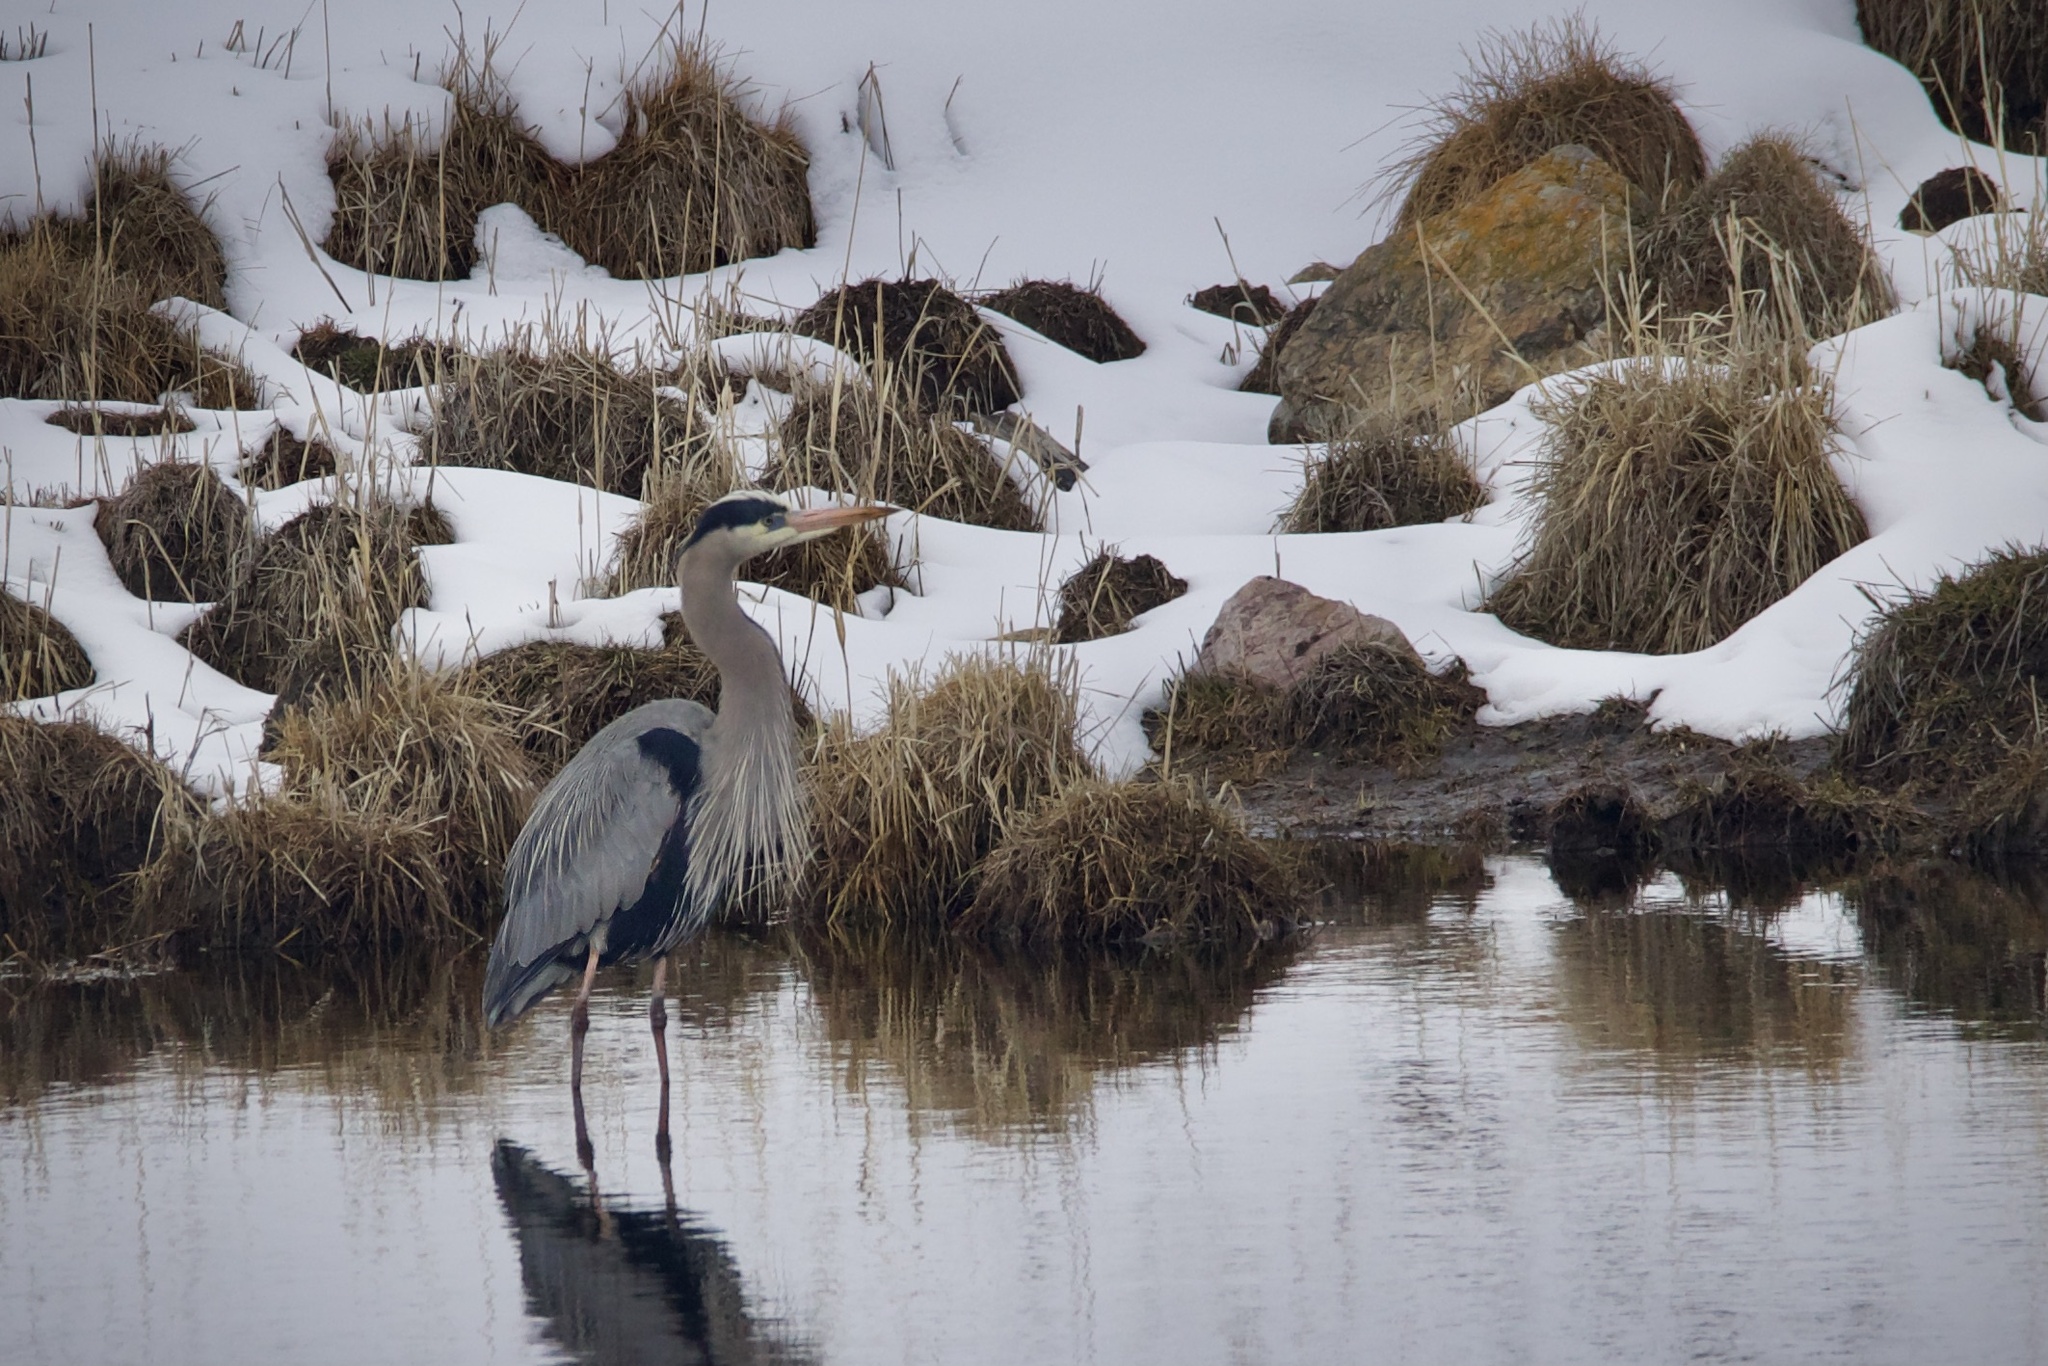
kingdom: Animalia
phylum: Chordata
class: Aves
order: Pelecaniformes
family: Ardeidae
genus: Ardea
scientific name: Ardea herodias
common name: Great blue heron
